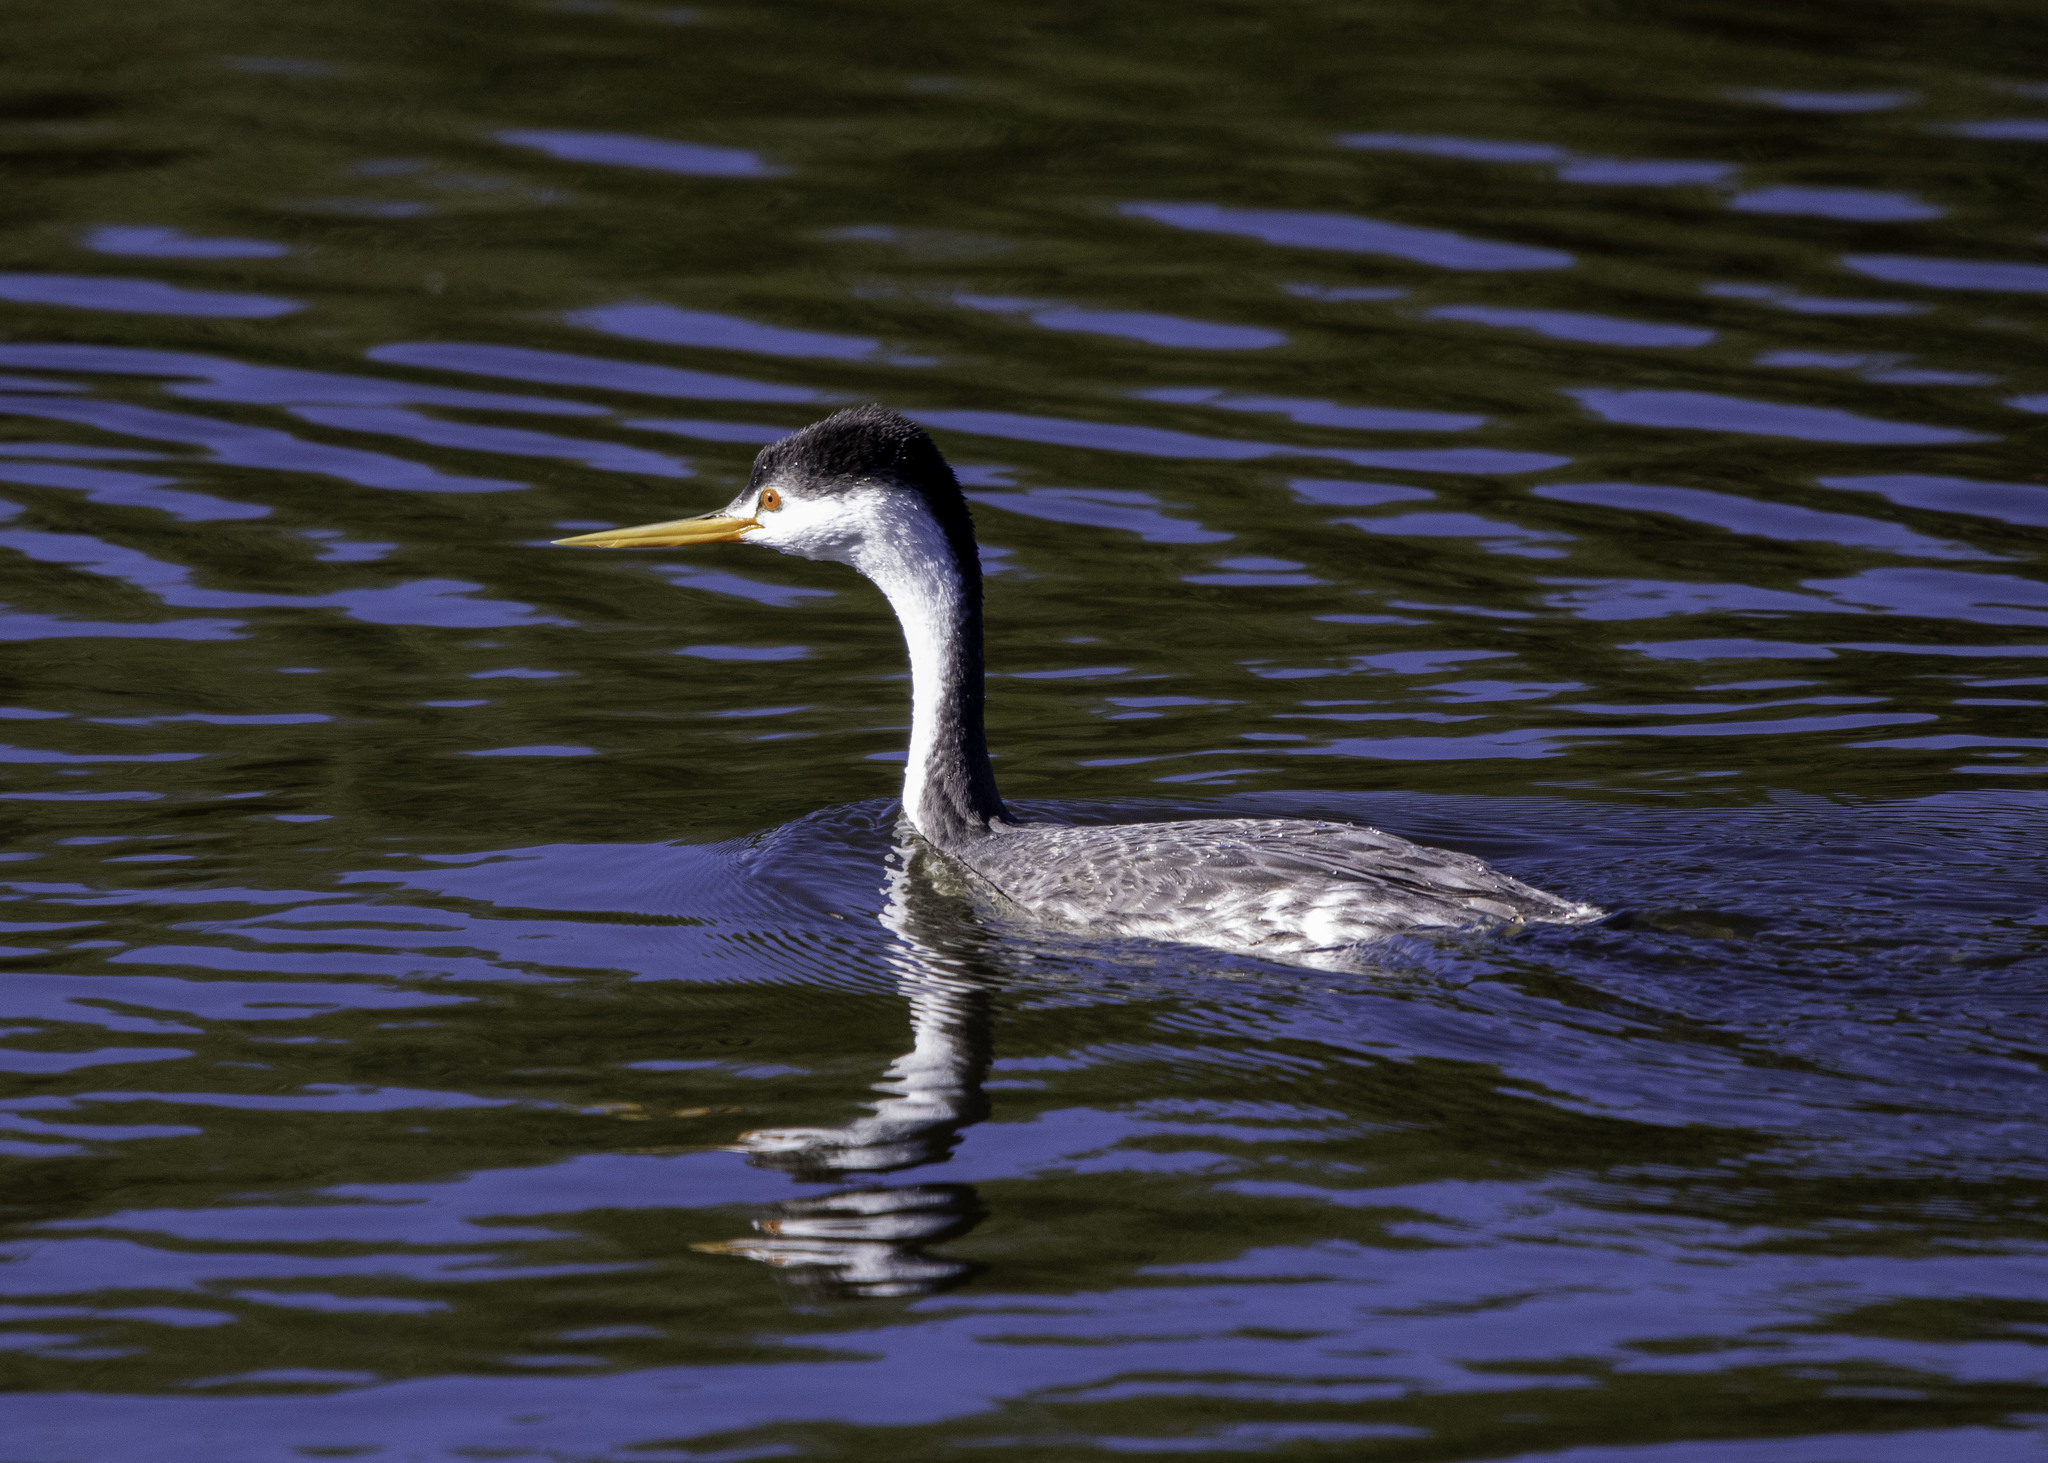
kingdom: Animalia
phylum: Chordata
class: Aves
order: Podicipediformes
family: Podicipedidae
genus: Aechmophorus
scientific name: Aechmophorus clarkii
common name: Clark's grebe
